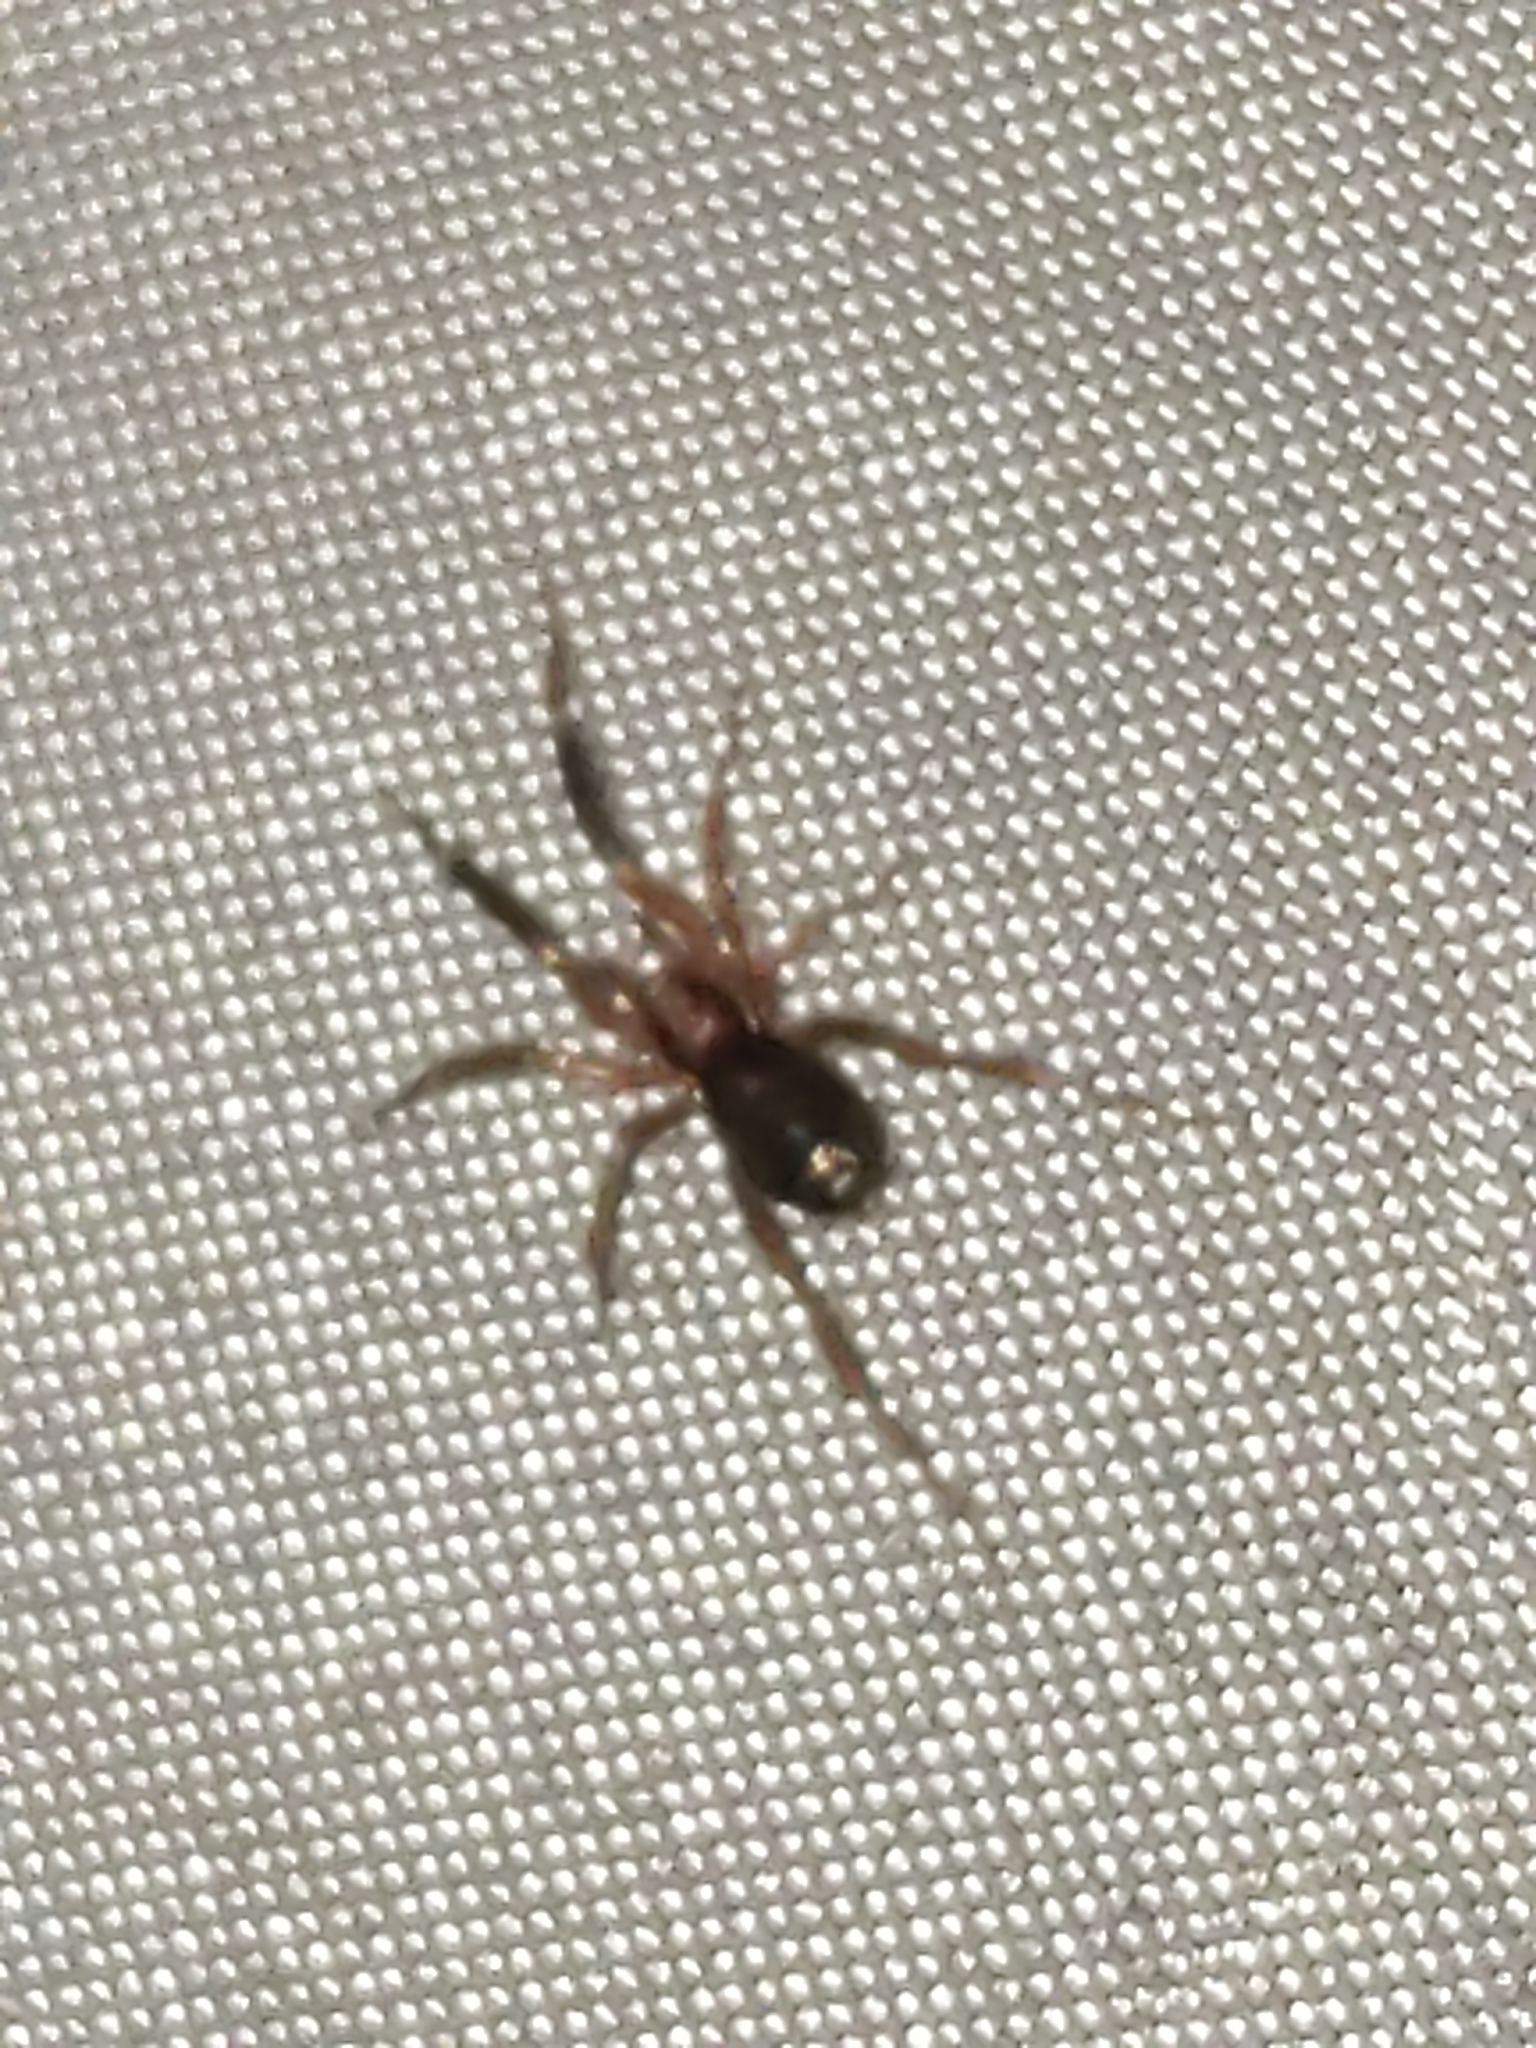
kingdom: Animalia
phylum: Arthropoda
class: Arachnida
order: Araneae
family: Phrurolithidae
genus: Phrurotimpus
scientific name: Phrurotimpus
